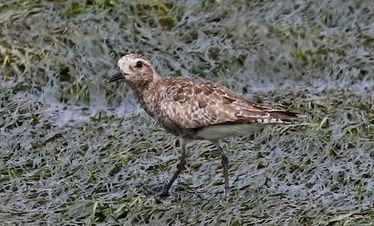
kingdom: Animalia
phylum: Chordata
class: Aves
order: Charadriiformes
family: Charadriidae
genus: Pluvialis
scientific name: Pluvialis squatarola
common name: Grey plover
